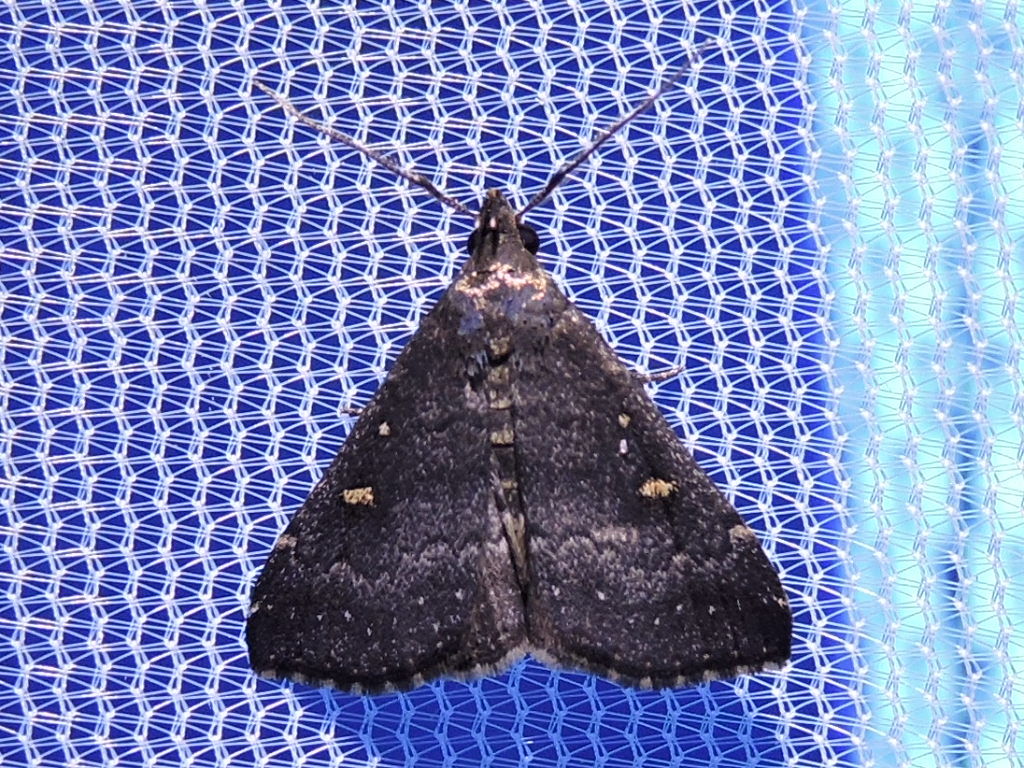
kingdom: Animalia
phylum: Arthropoda
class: Insecta
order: Lepidoptera
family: Erebidae
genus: Tetanolita
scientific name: Tetanolita mynesalis
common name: Smoky tetanolita moth
